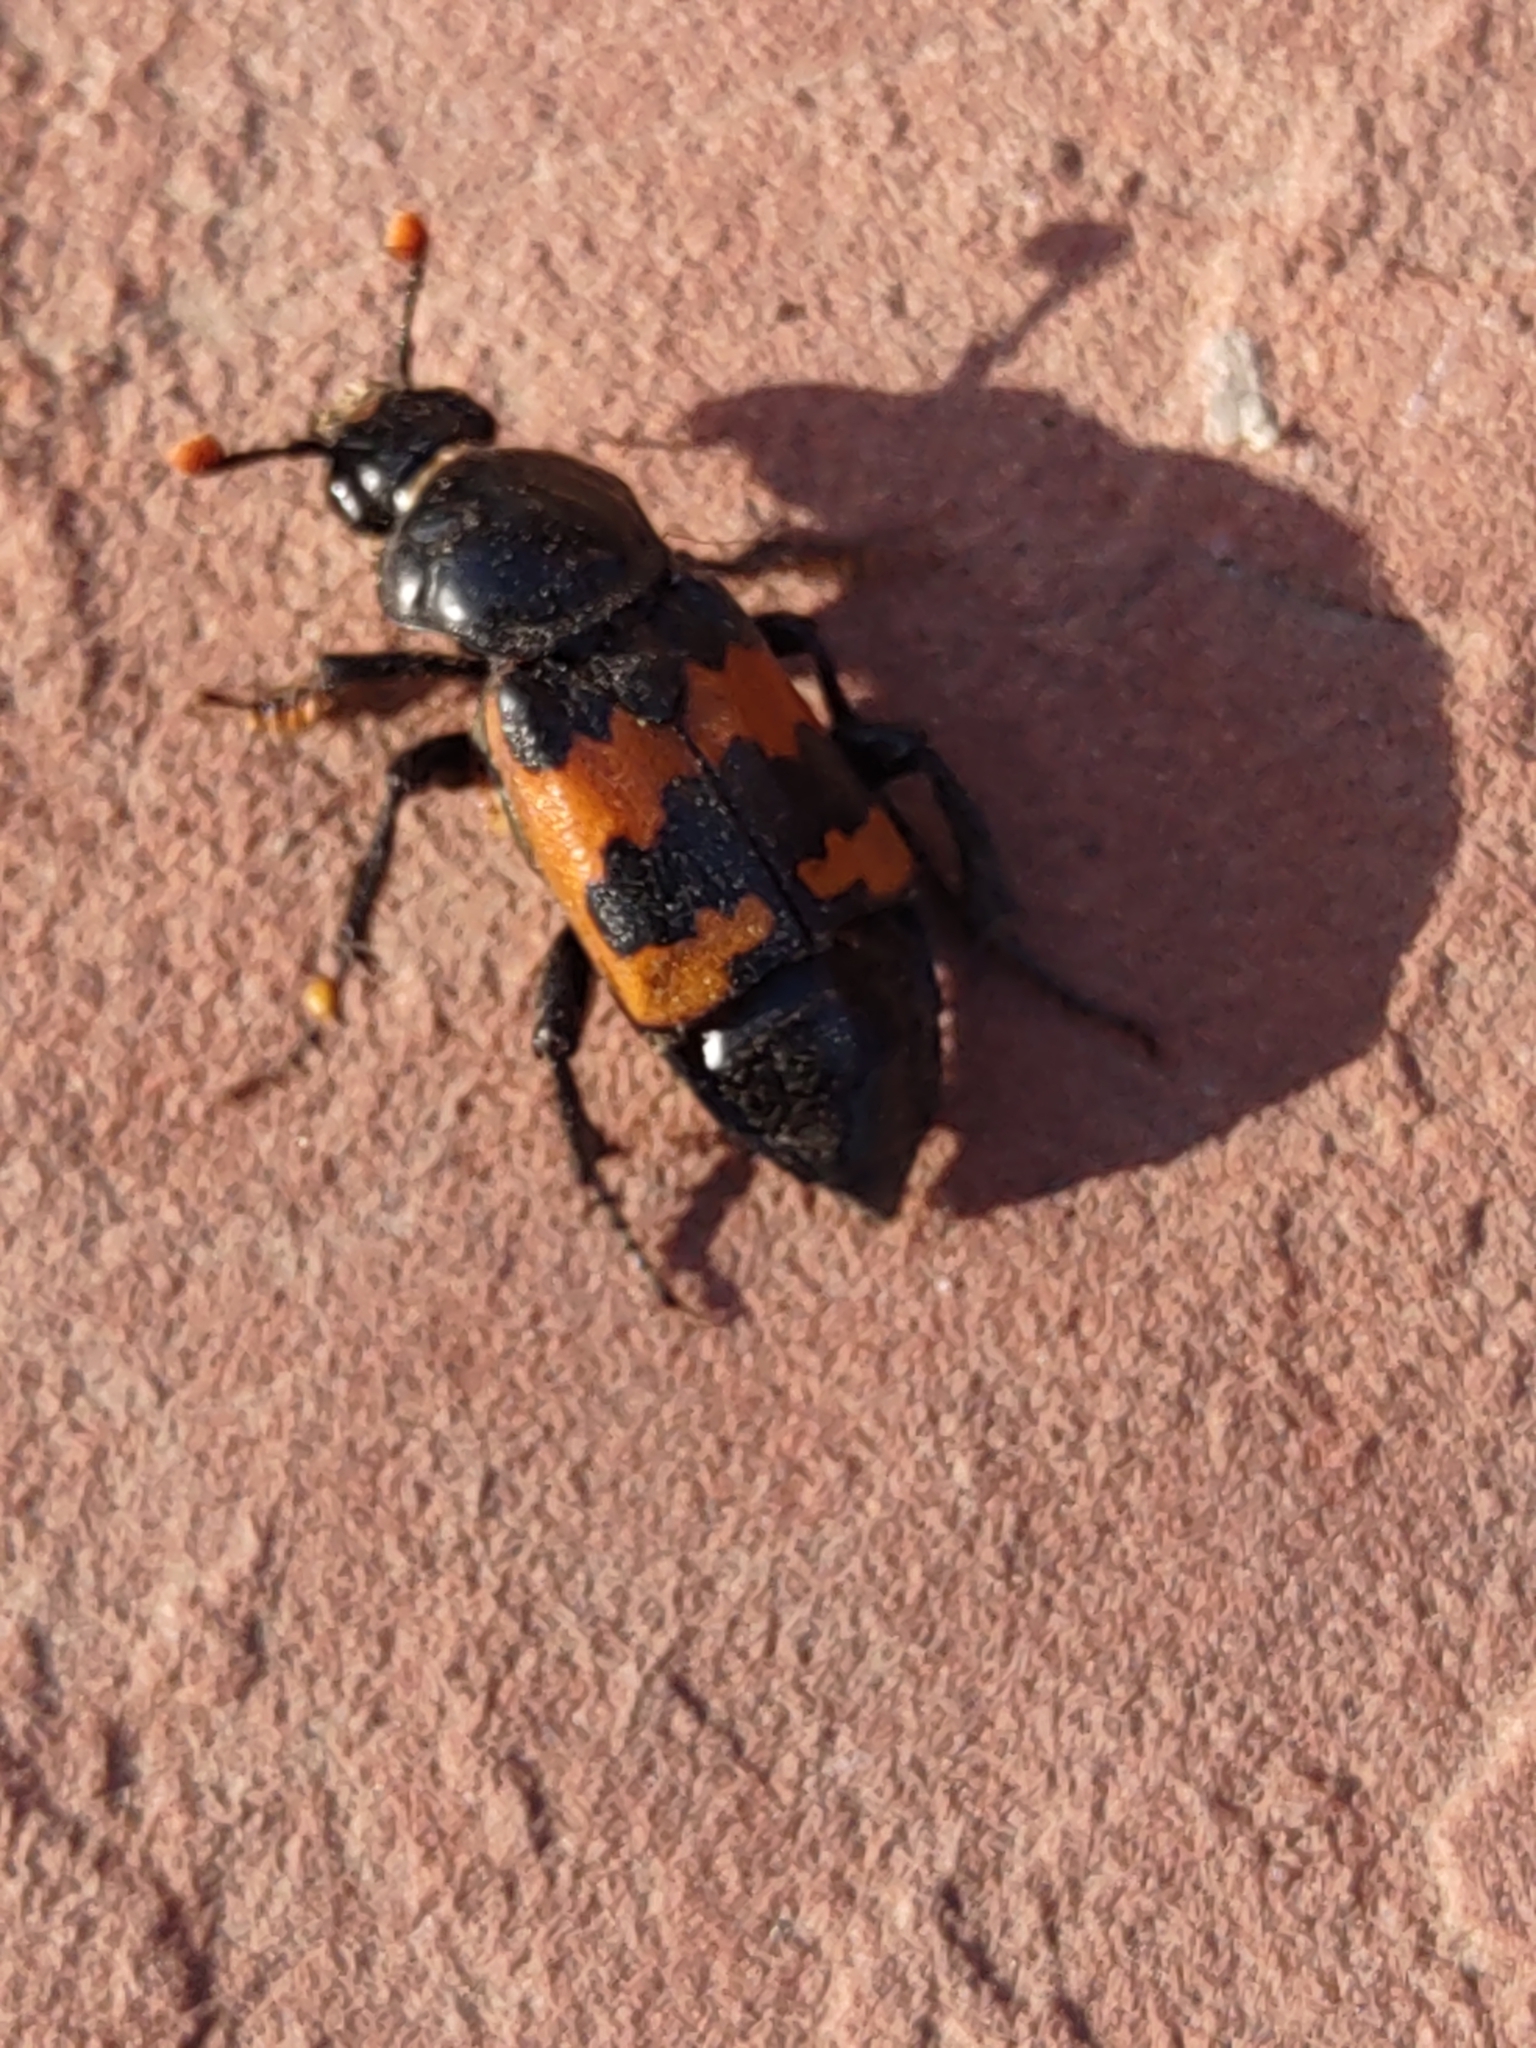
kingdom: Animalia
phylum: Arthropoda
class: Insecta
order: Coleoptera
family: Staphylinidae
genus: Nicrophorus
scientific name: Nicrophorus marginatus
